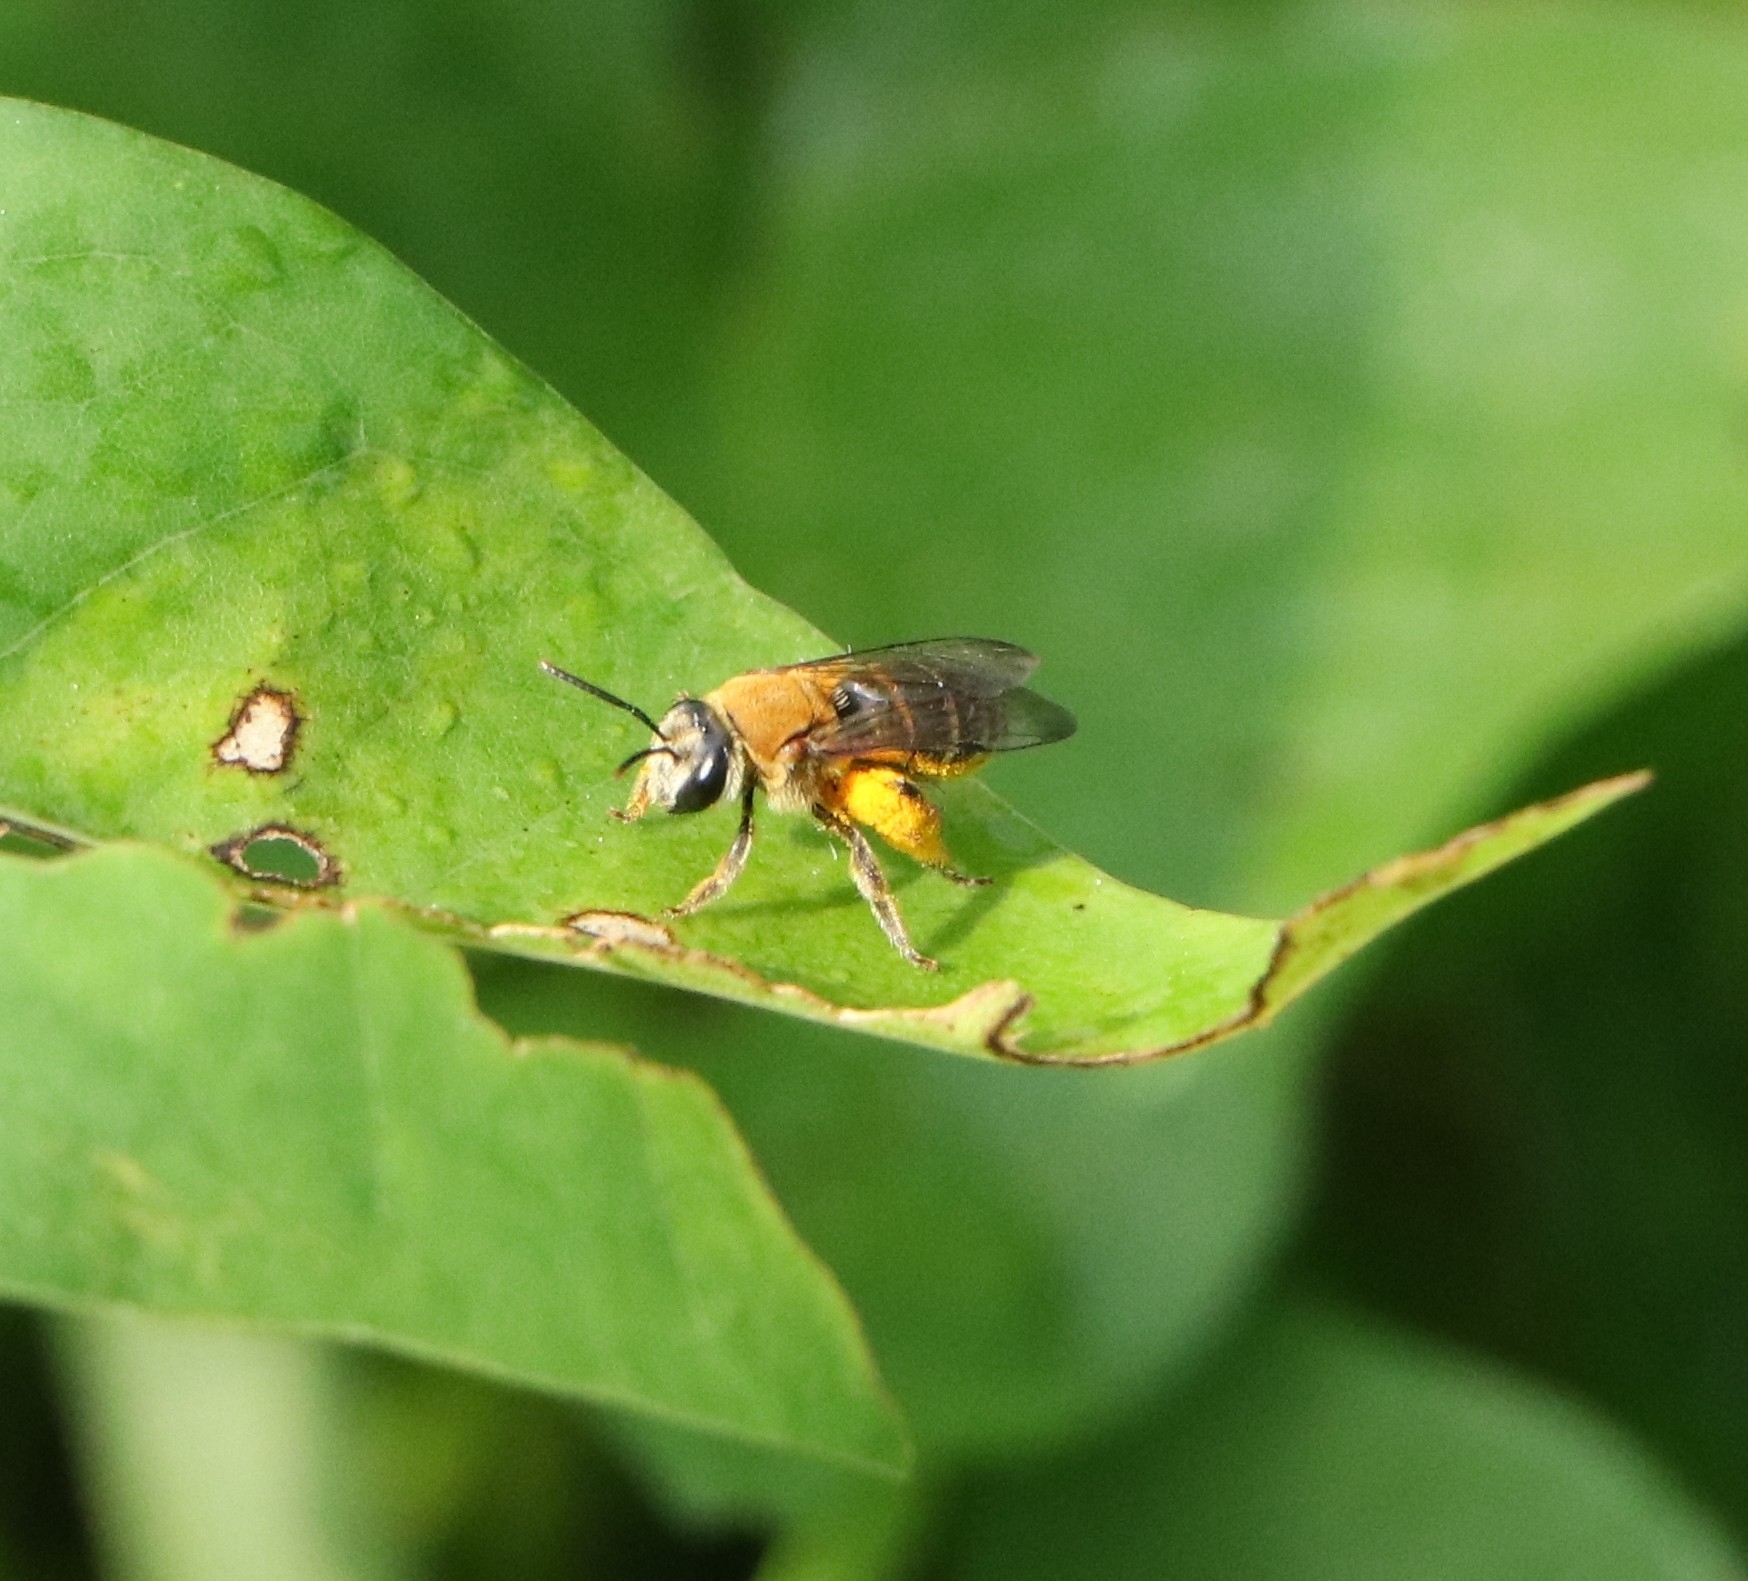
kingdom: Animalia
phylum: Arthropoda
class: Insecta
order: Hymenoptera
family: Halictidae
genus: Nomia
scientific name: Nomia thoracica
